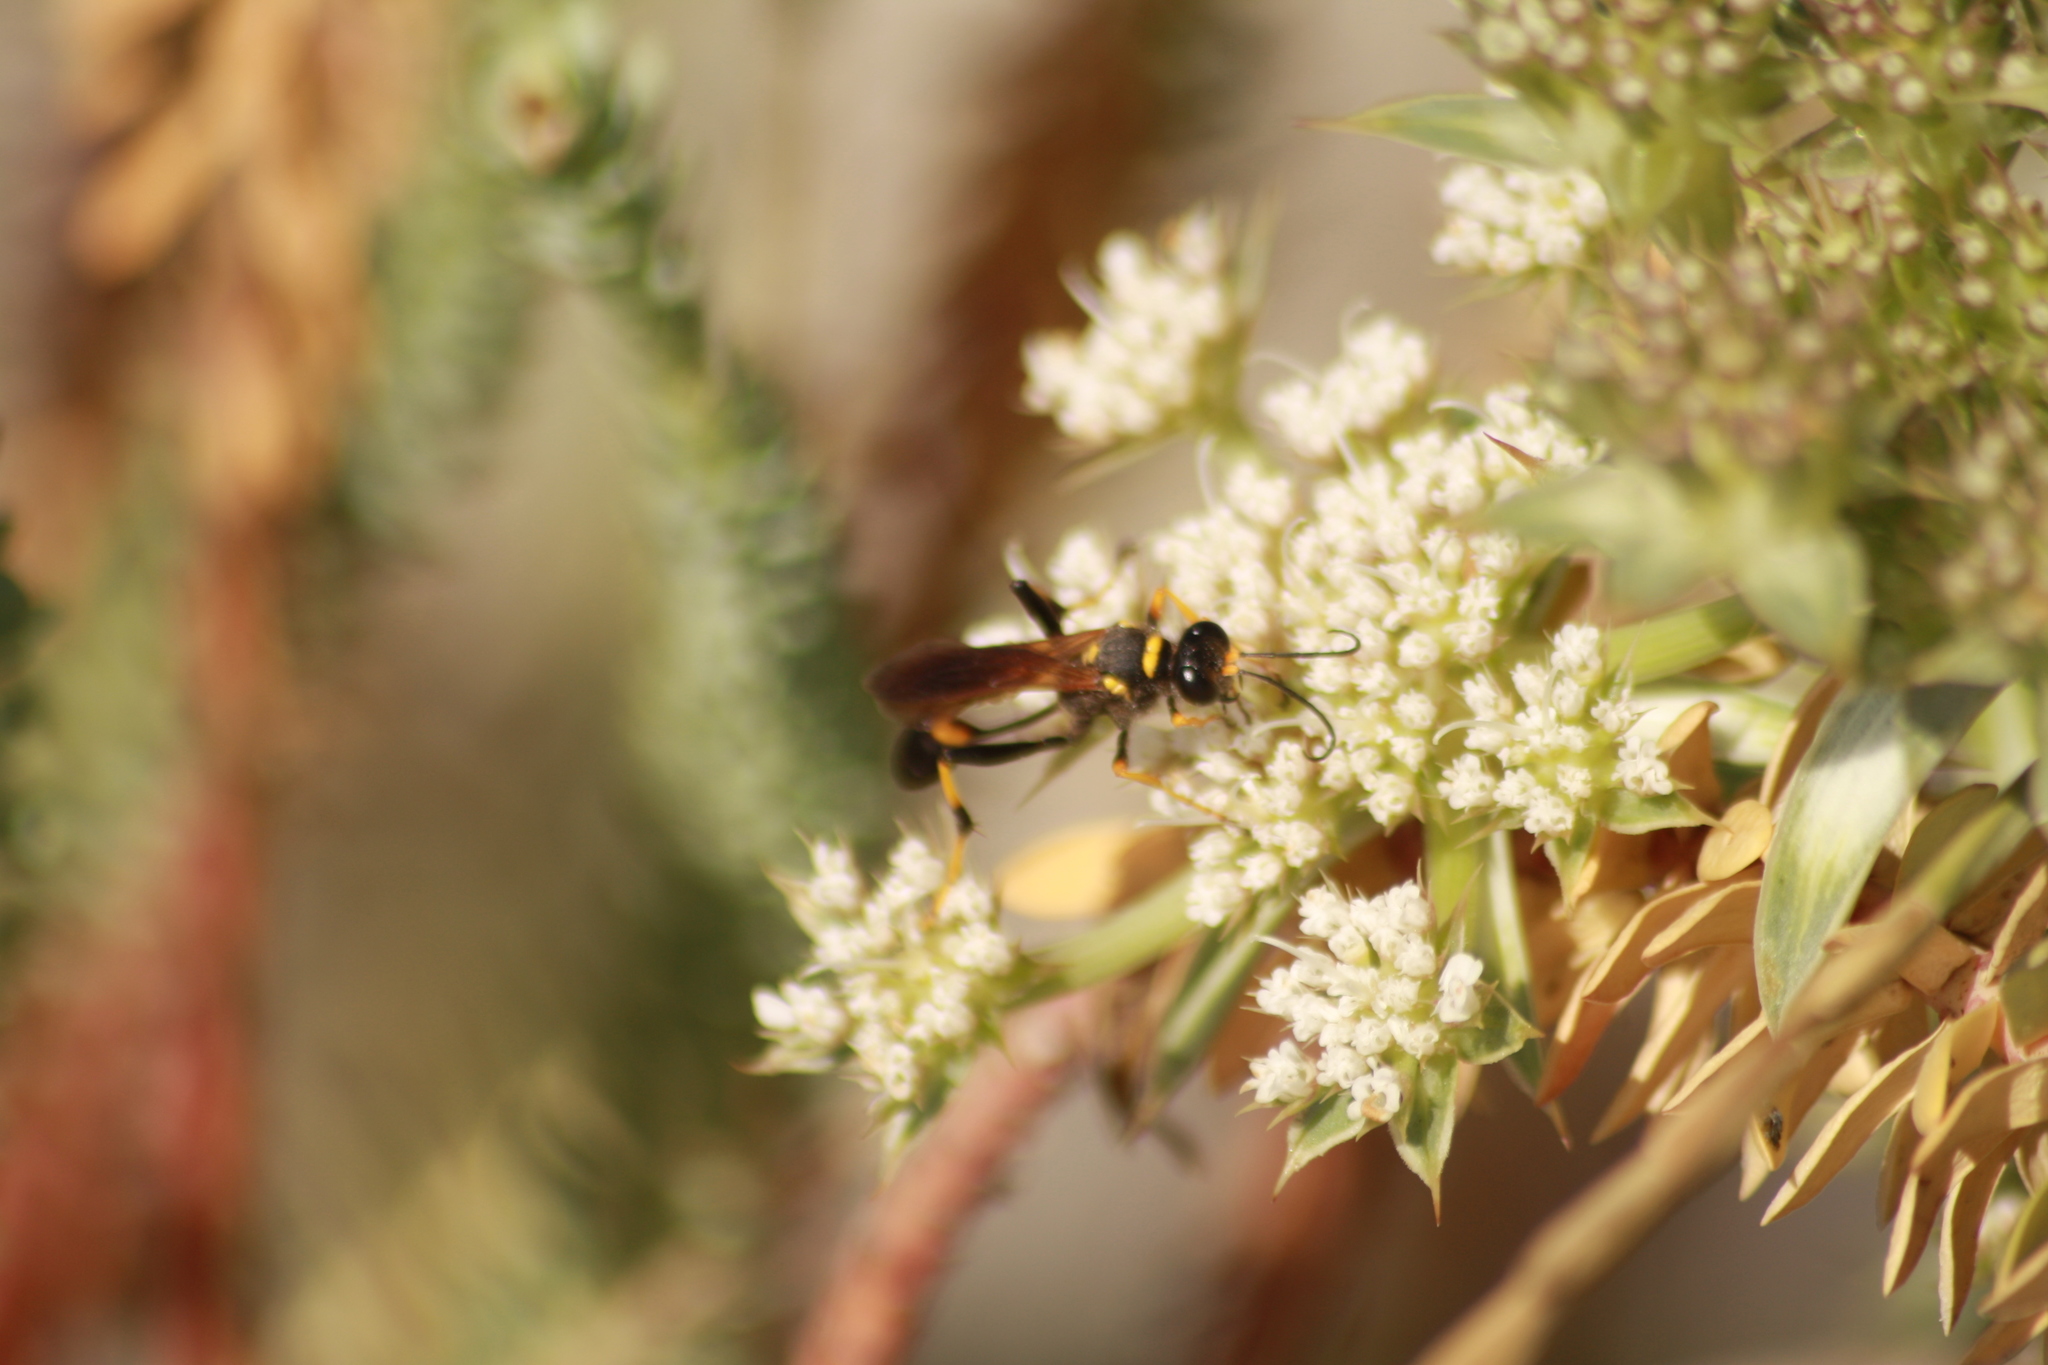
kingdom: Animalia
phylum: Arthropoda
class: Insecta
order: Hymenoptera
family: Sphecidae
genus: Sceliphron
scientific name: Sceliphron caementarium
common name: Mud dauber
